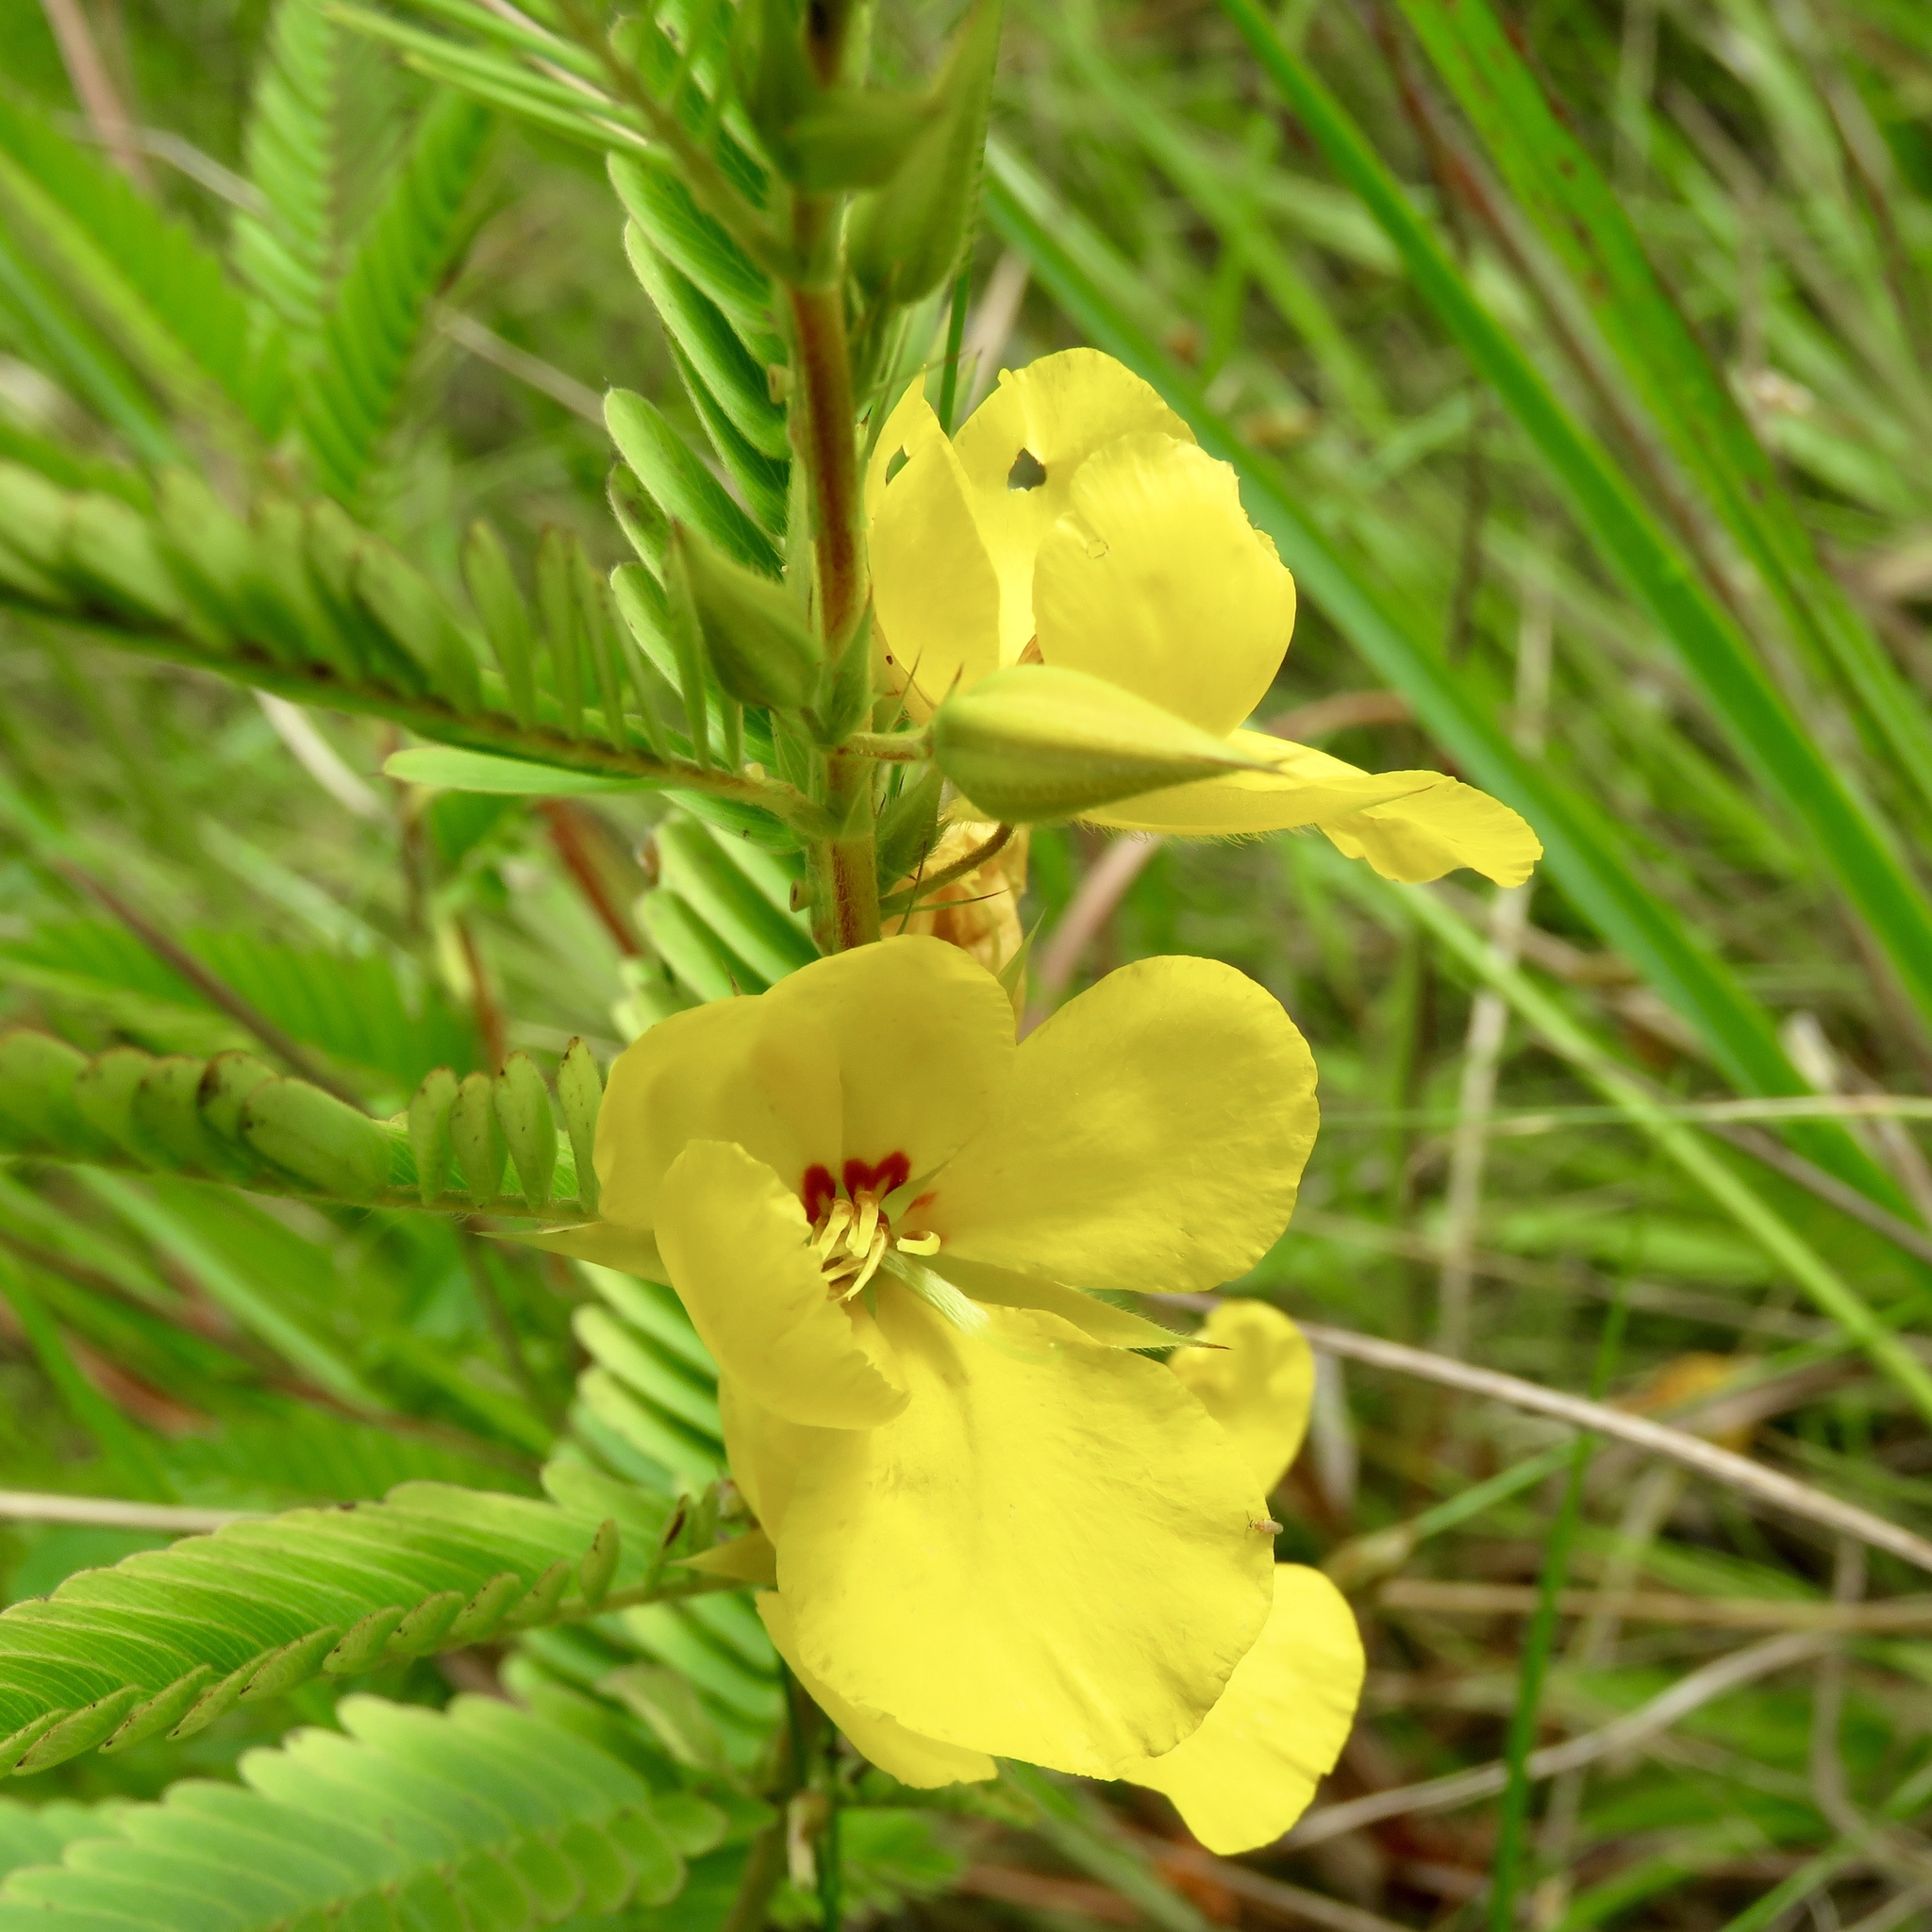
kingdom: Plantae
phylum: Tracheophyta
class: Magnoliopsida
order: Fabales
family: Fabaceae
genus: Chamaecrista
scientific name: Chamaecrista fasciculata
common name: Golden cassia
